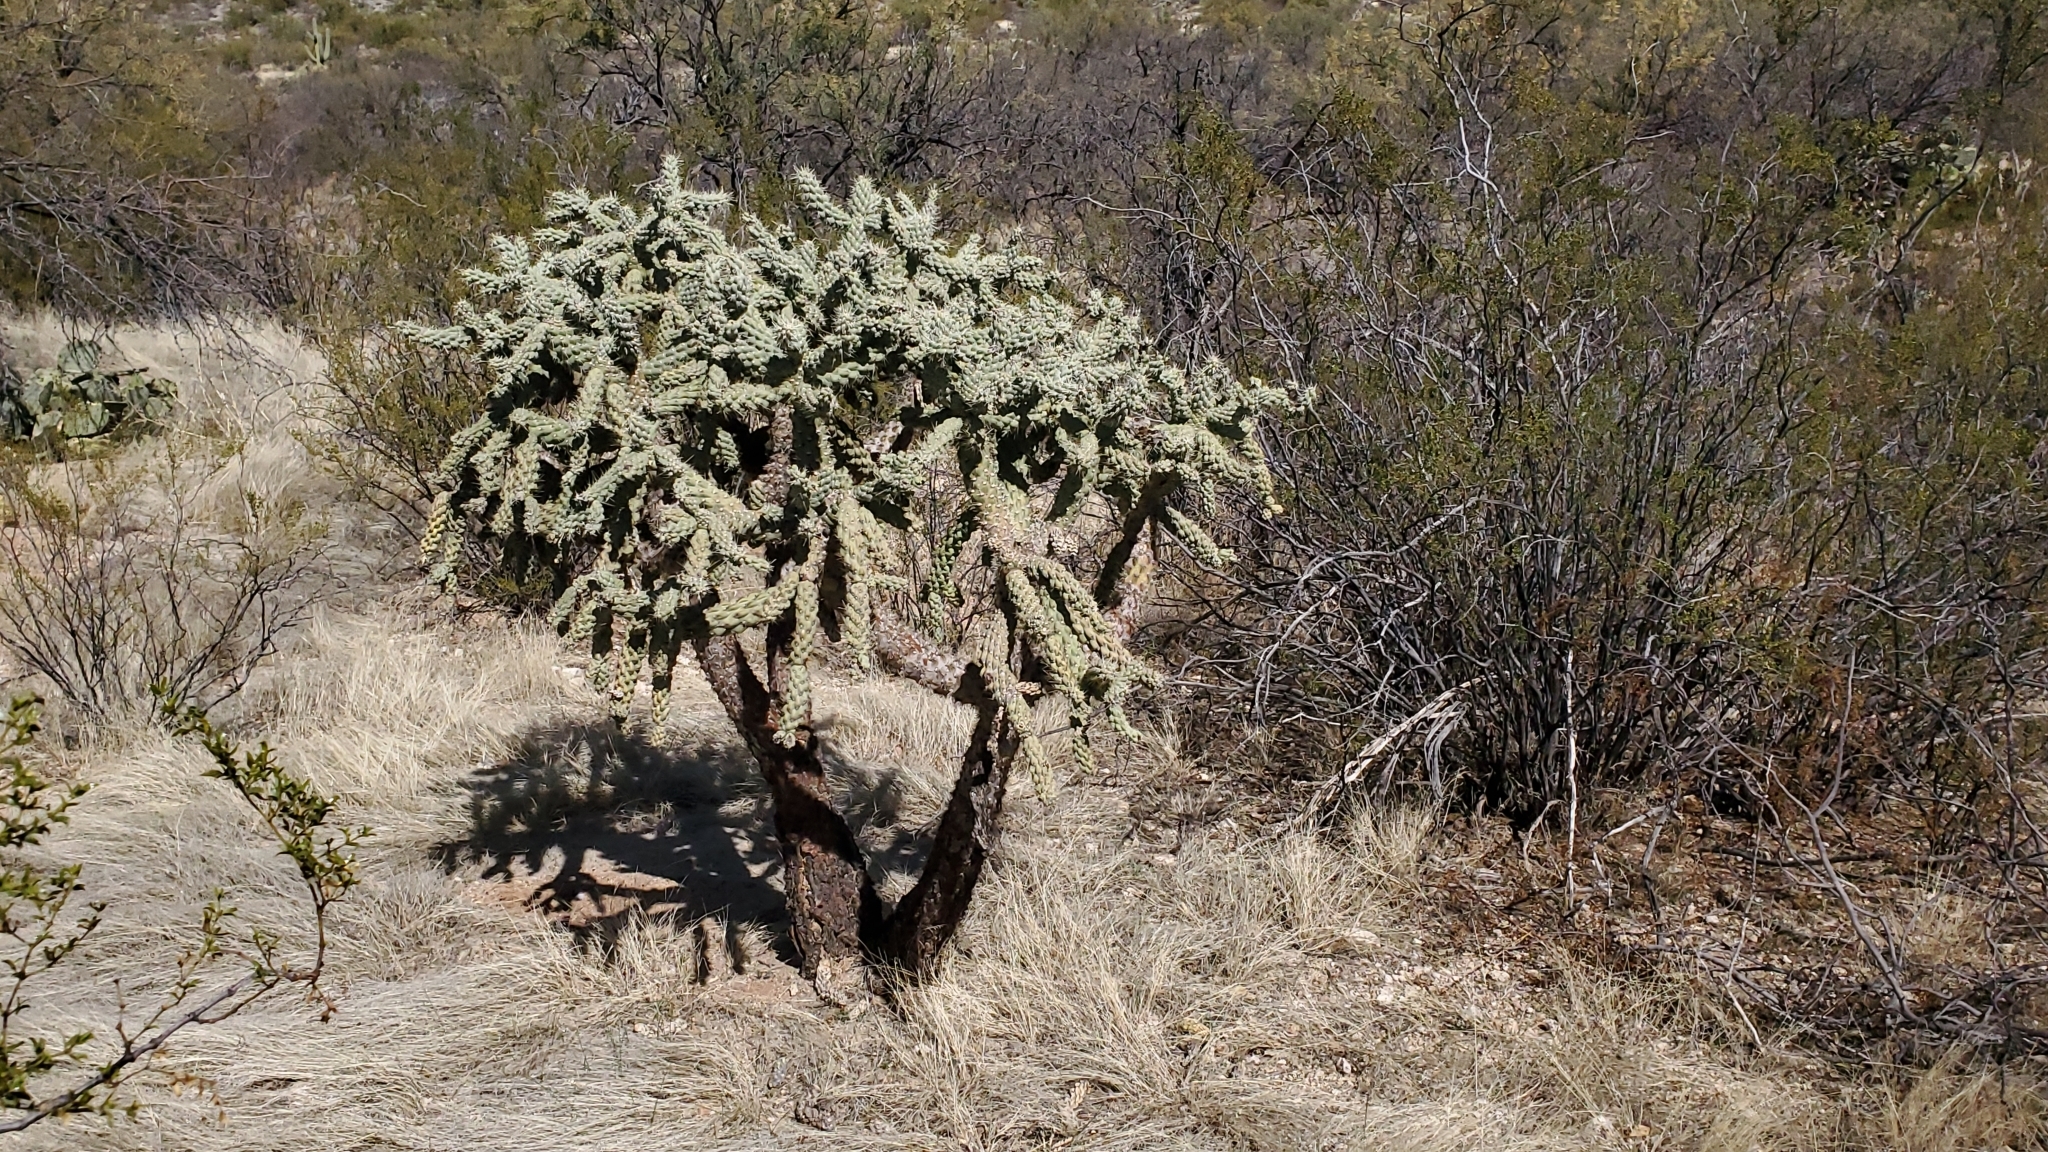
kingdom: Plantae
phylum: Tracheophyta
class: Magnoliopsida
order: Caryophyllales
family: Cactaceae
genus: Cylindropuntia
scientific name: Cylindropuntia fulgida
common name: Jumping cholla
